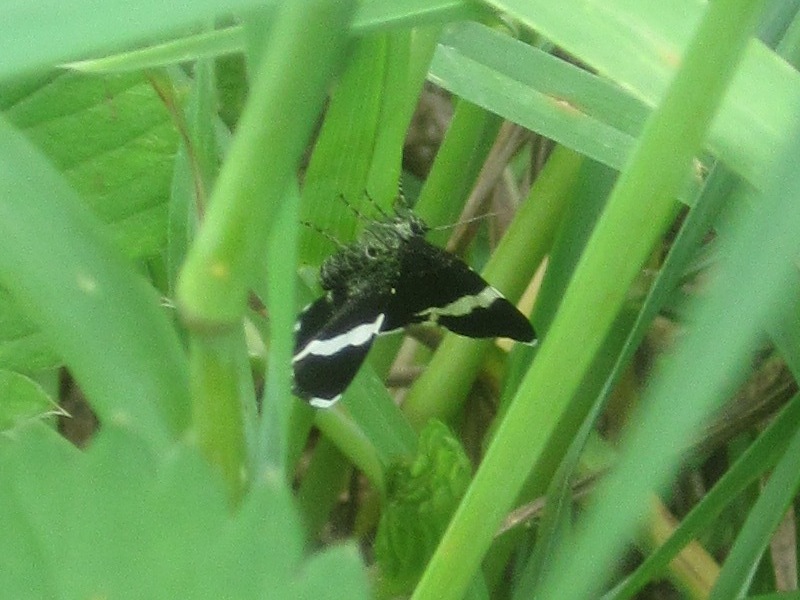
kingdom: Animalia
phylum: Arthropoda
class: Insecta
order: Lepidoptera
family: Geometridae
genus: Trichodezia
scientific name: Trichodezia albovittata
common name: White striped black
